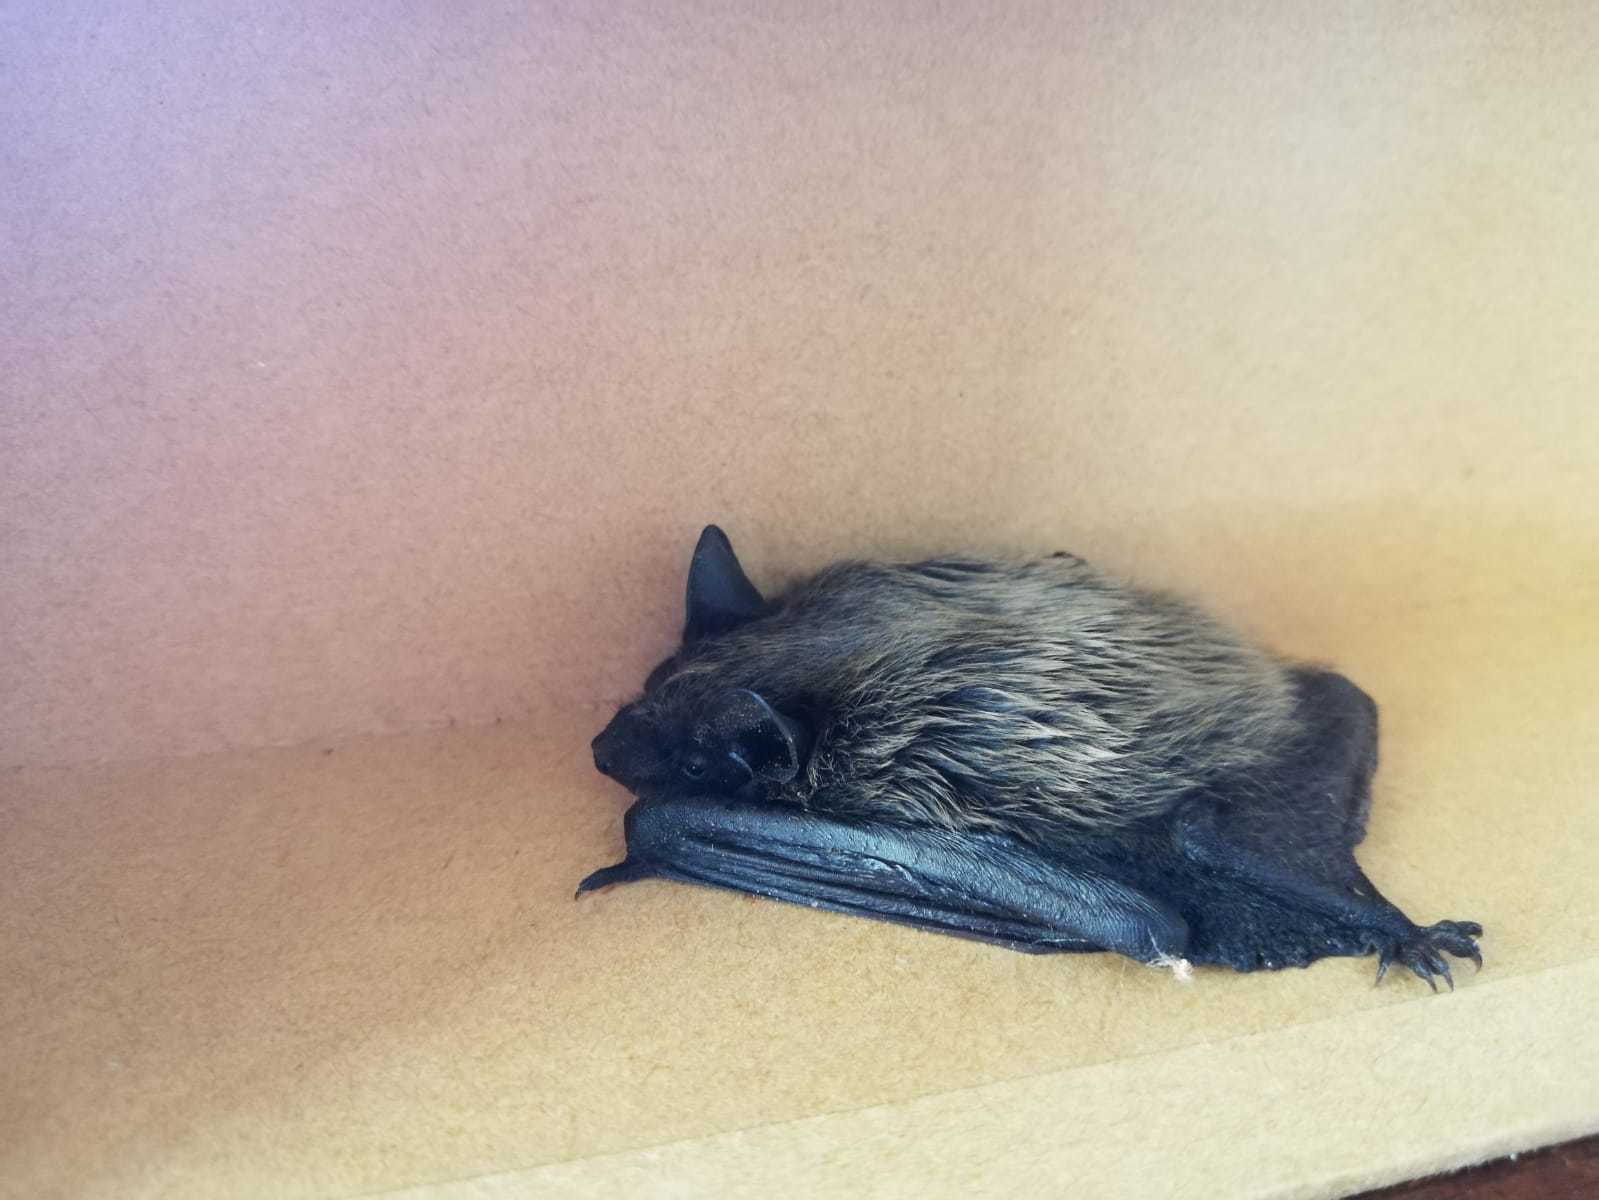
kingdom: Animalia
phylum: Chordata
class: Mammalia
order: Chiroptera
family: Vespertilionidae
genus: Hypsugo
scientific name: Hypsugo savii
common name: Savi's pipistrelle
